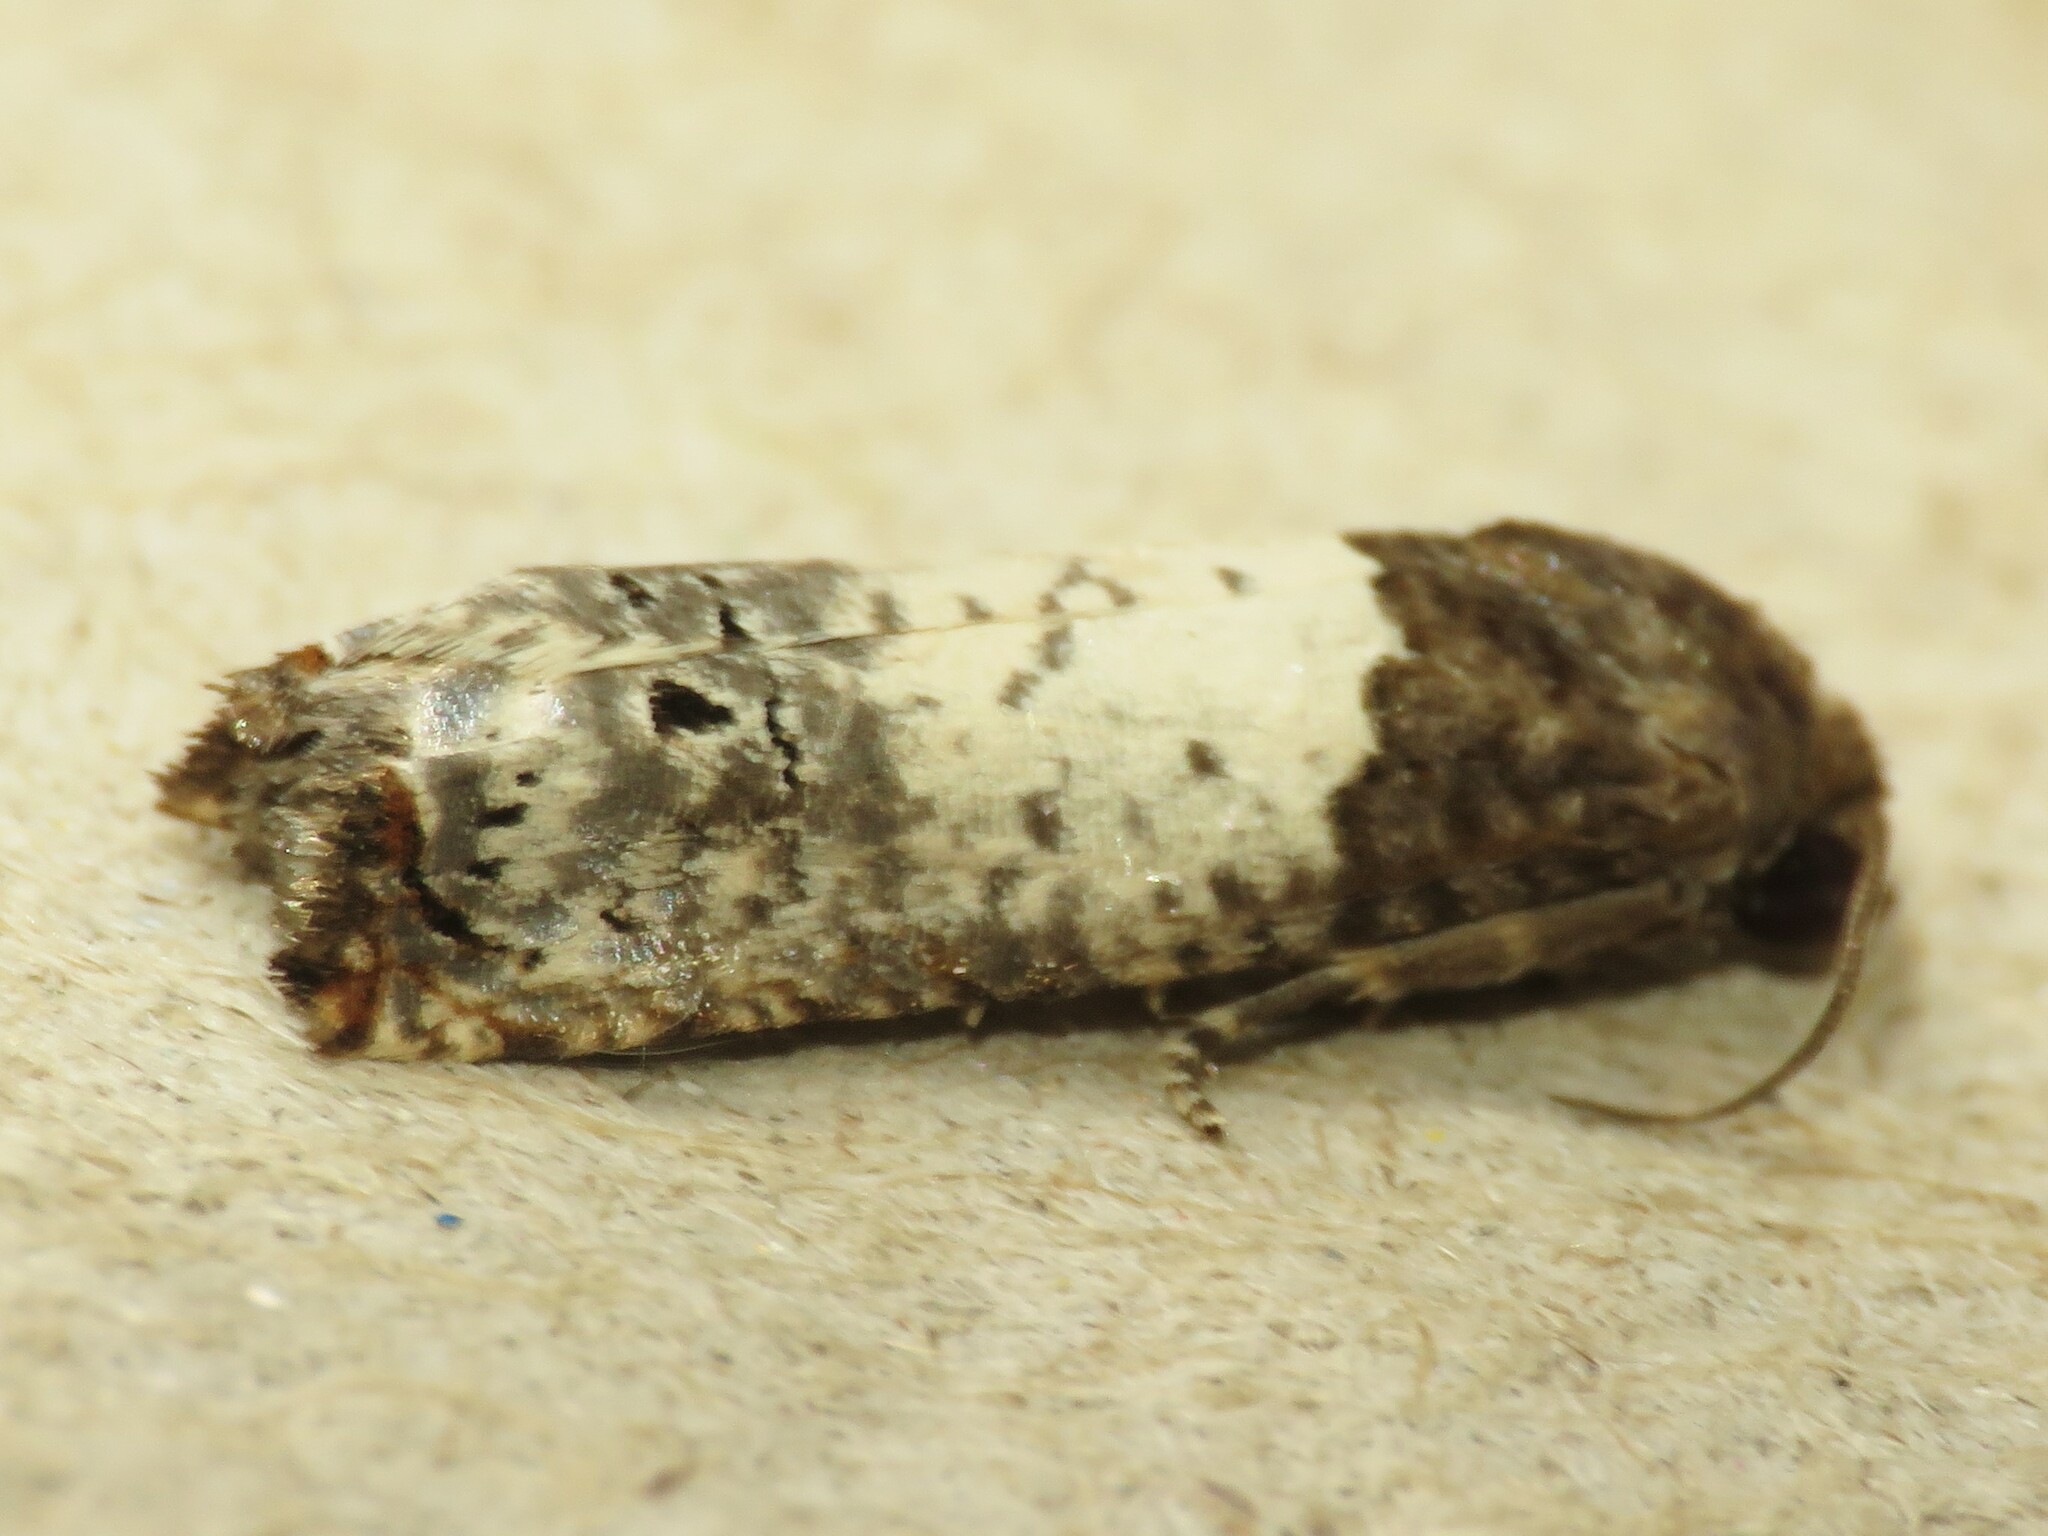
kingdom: Animalia
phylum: Arthropoda
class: Insecta
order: Lepidoptera
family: Tortricidae
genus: Epiblema
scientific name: Epiblema scudderiana
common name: Goldenrod gall moth
